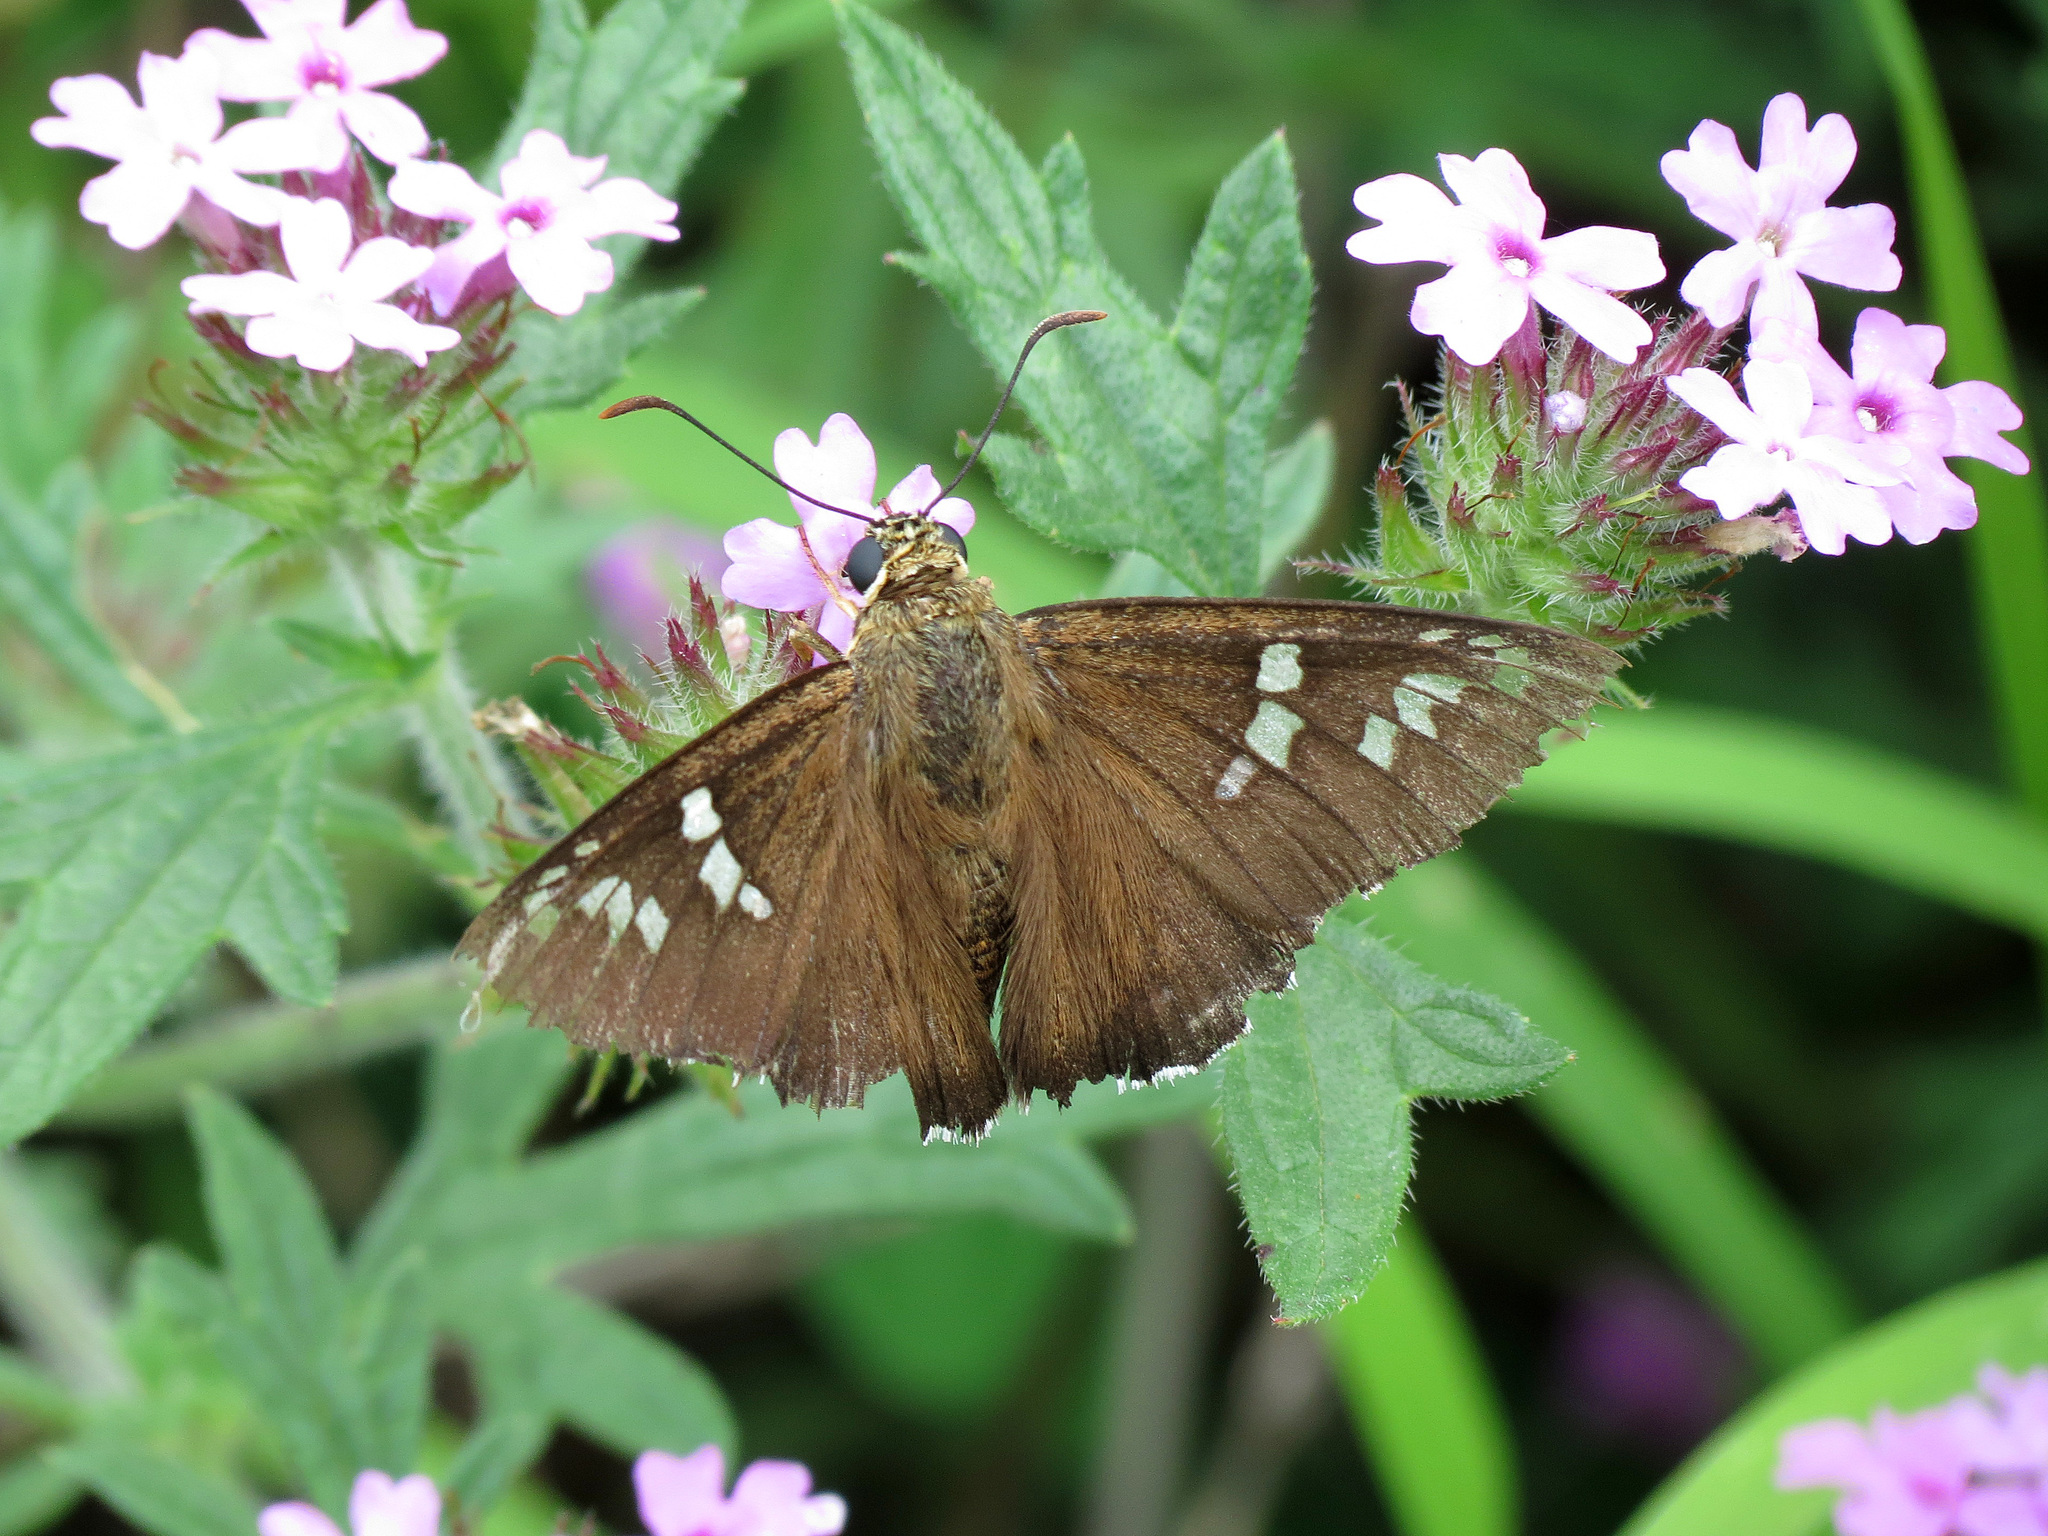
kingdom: Animalia
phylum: Arthropoda
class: Insecta
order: Lepidoptera
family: Hesperiidae
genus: Pyrrhopyge
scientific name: Pyrrhopyge araxes
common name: Dull firetip
